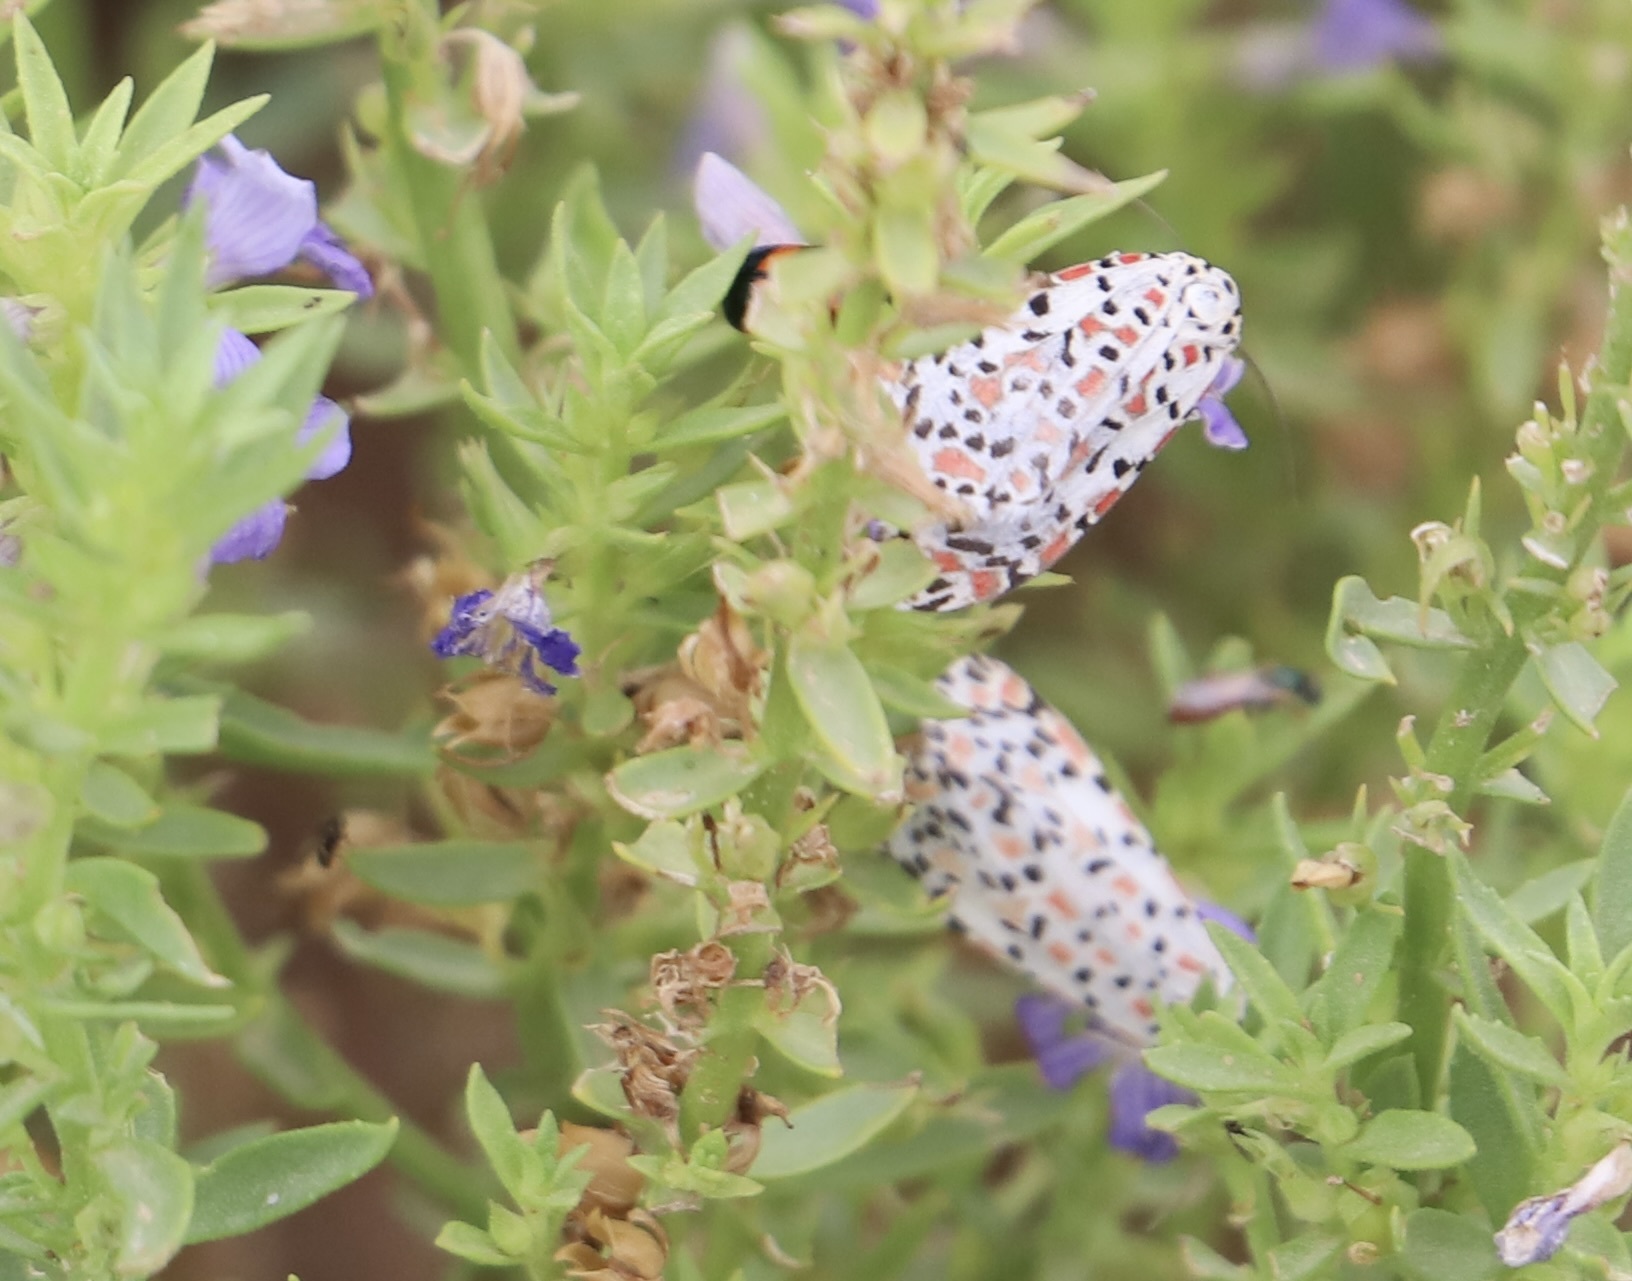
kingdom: Animalia
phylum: Arthropoda
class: Insecta
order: Lepidoptera
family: Erebidae
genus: Utetheisa
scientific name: Utetheisa pulchelloides
